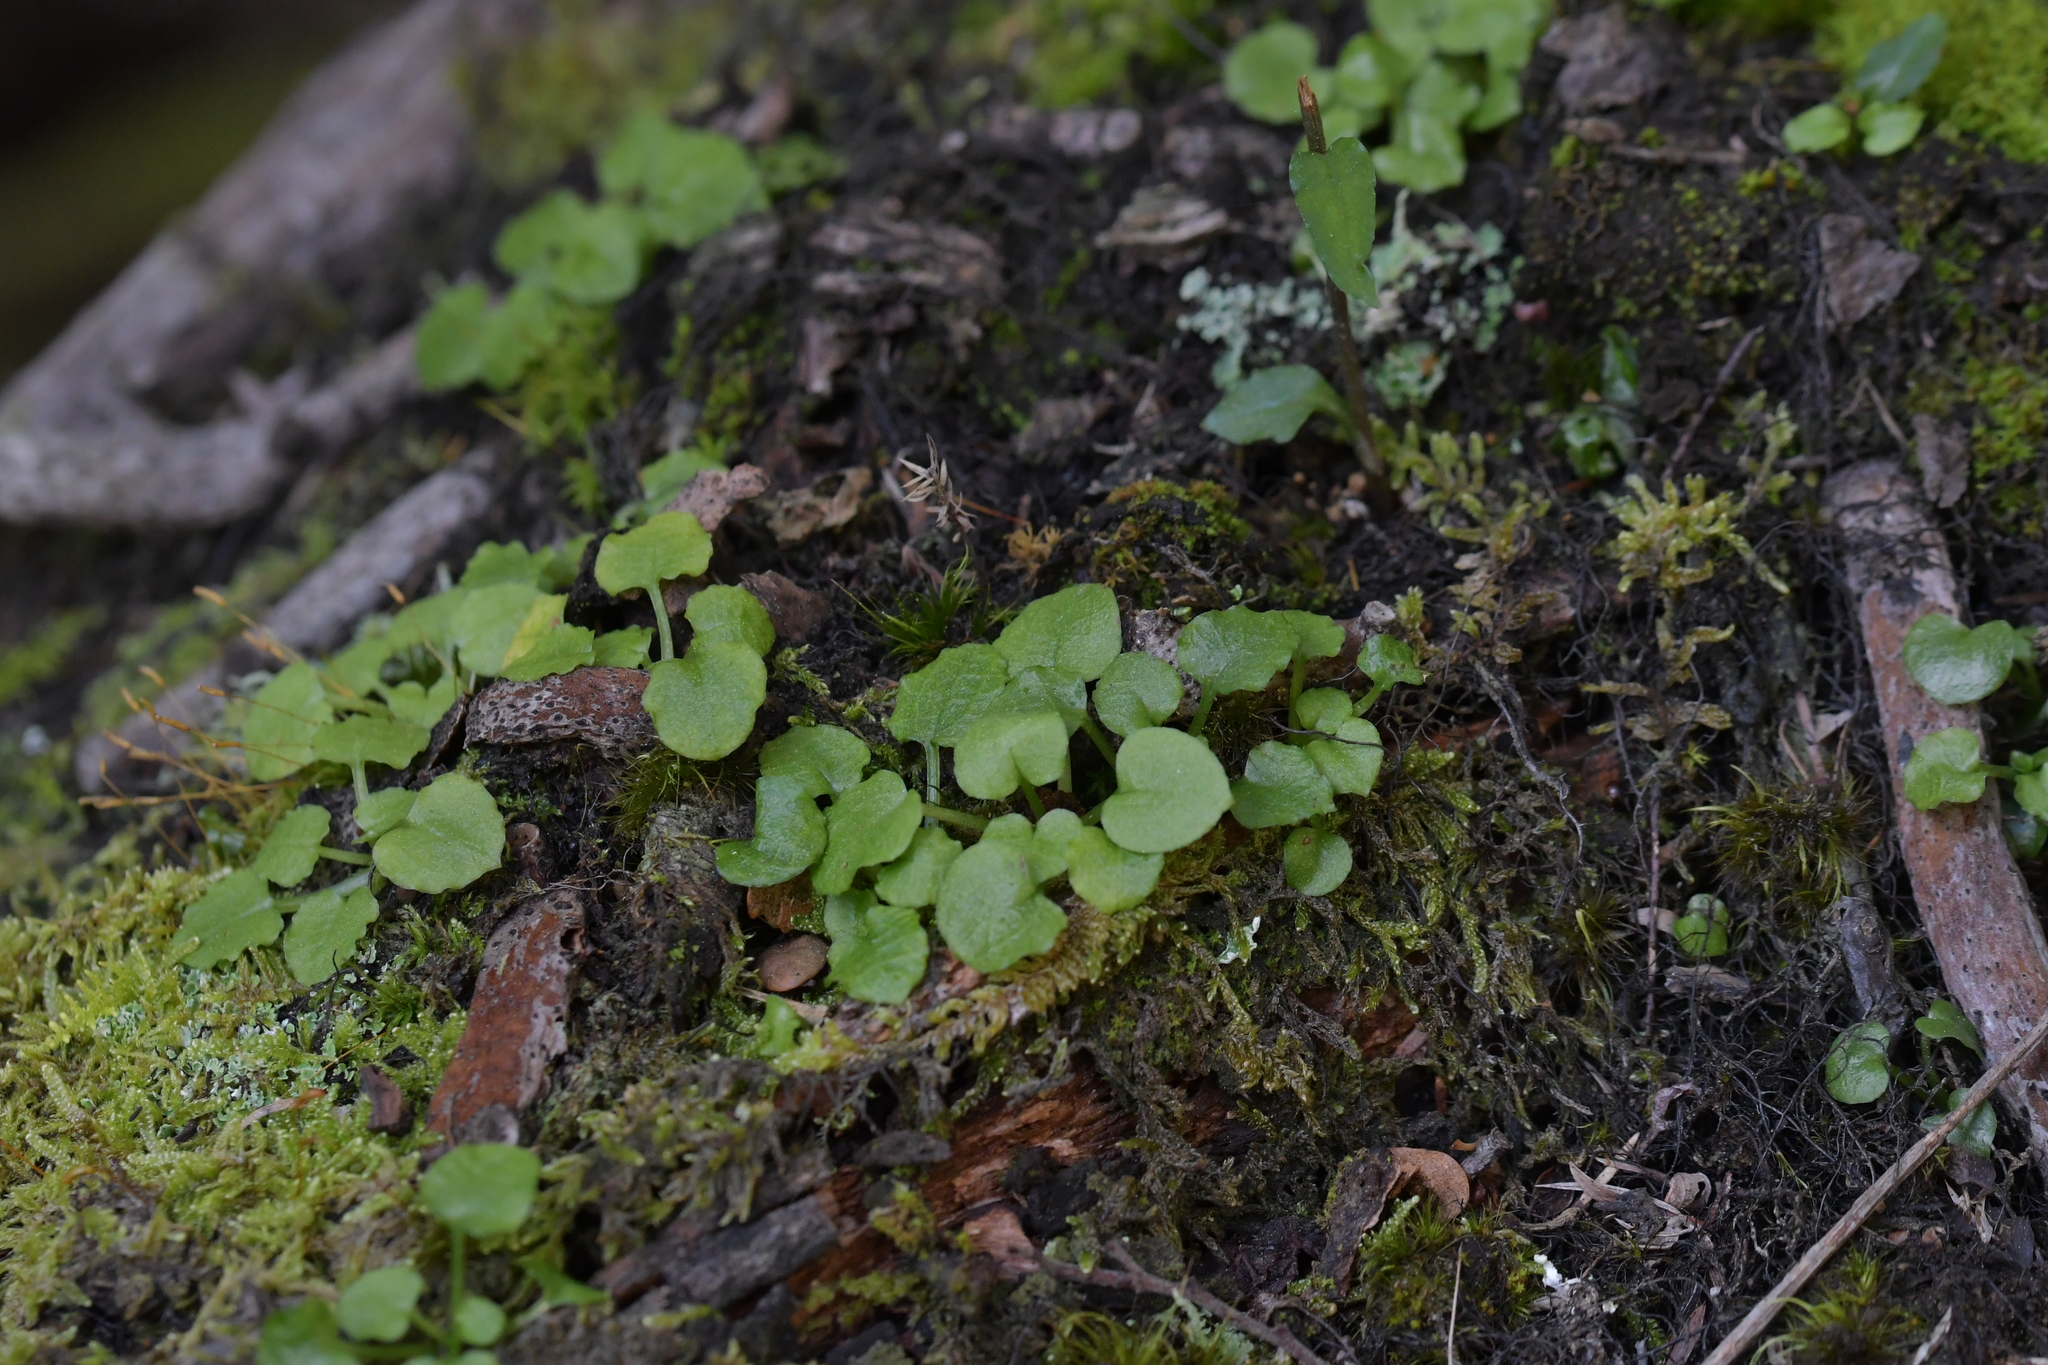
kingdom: Plantae
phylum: Tracheophyta
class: Liliopsida
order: Asparagales
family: Orchidaceae
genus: Pterostylis
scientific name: Pterostylis alobula
